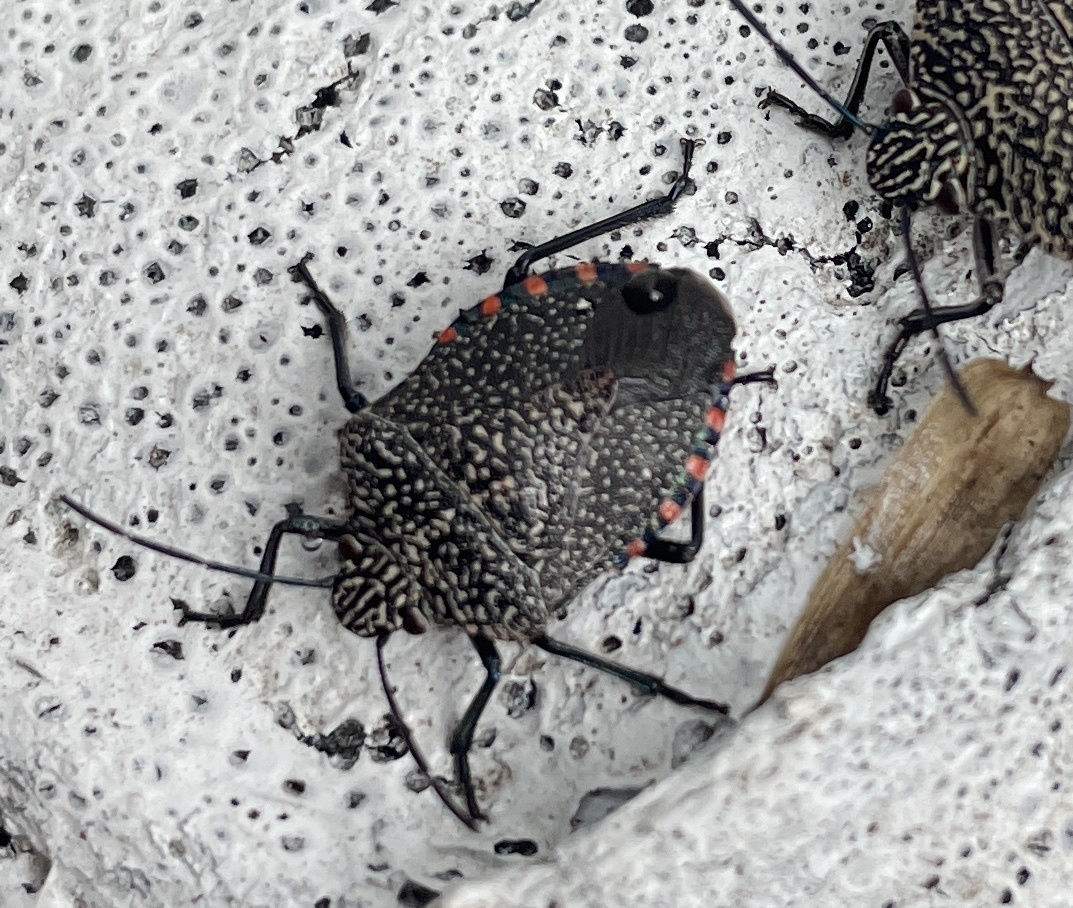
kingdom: Animalia
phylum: Arthropoda
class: Insecta
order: Hemiptera
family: Pentatomidae
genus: Pellaea
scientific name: Pellaea stictica
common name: Stink bug
